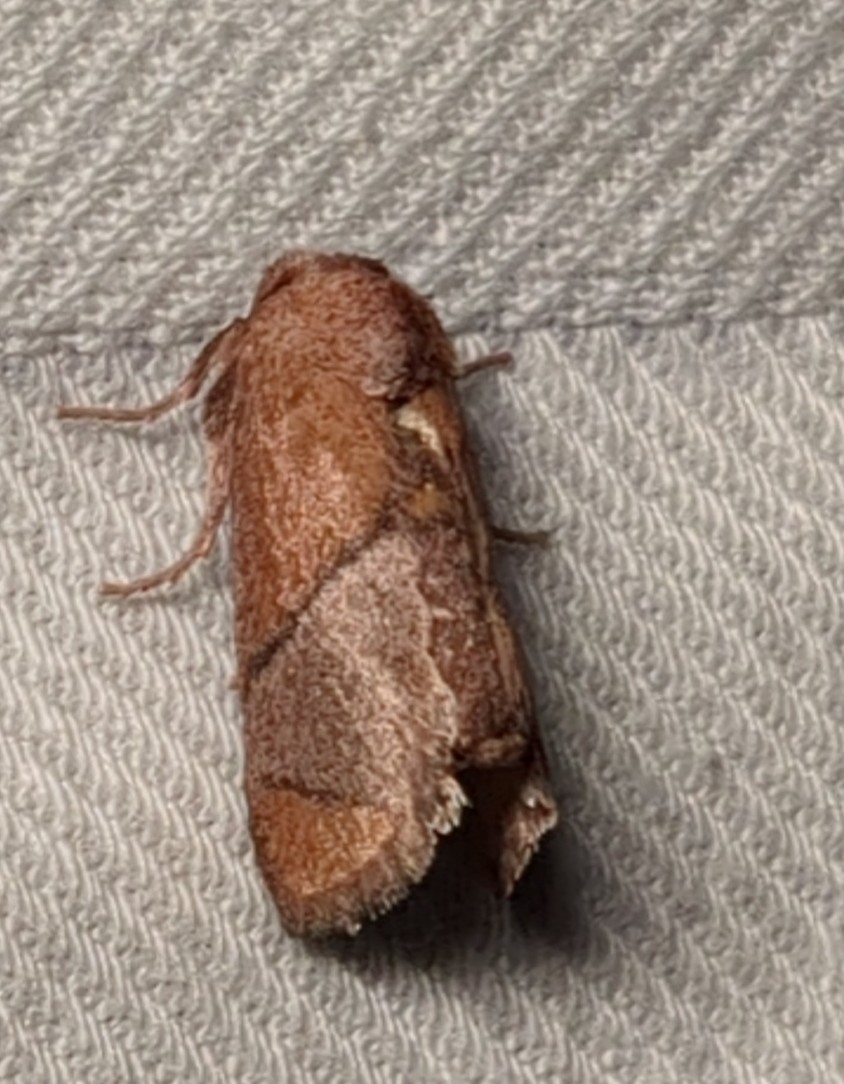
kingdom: Animalia
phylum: Arthropoda
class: Insecta
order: Lepidoptera
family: Limacodidae
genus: Apoda
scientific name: Apoda latomia
